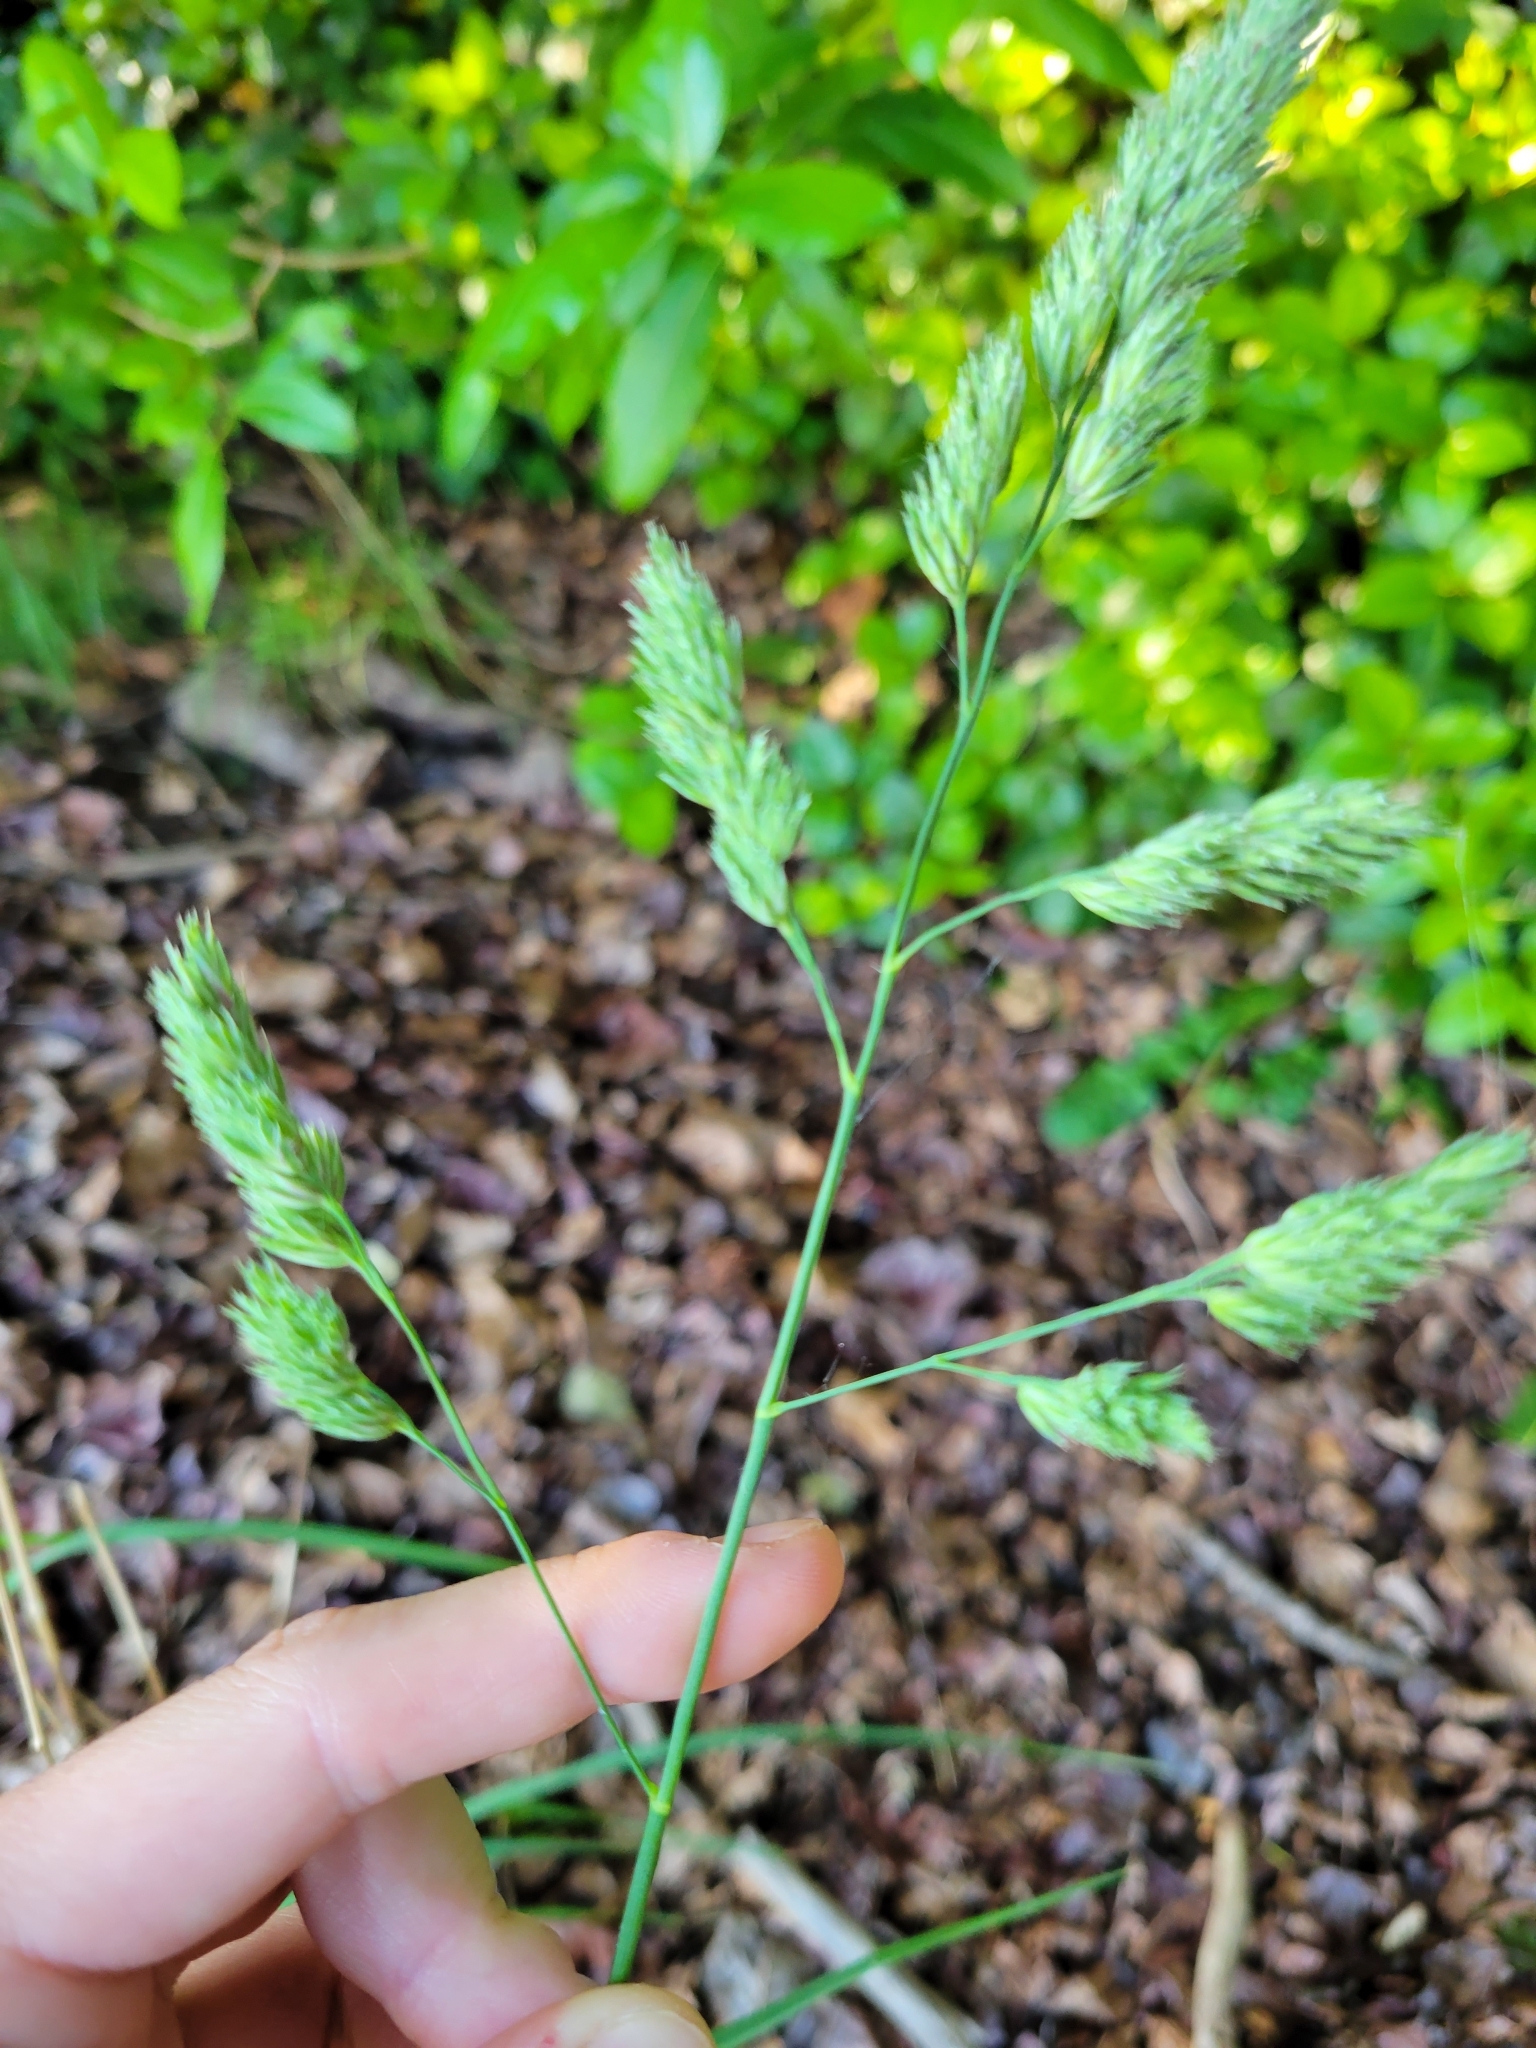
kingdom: Plantae
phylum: Tracheophyta
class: Liliopsida
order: Poales
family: Poaceae
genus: Dactylis
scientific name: Dactylis glomerata
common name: Orchardgrass
